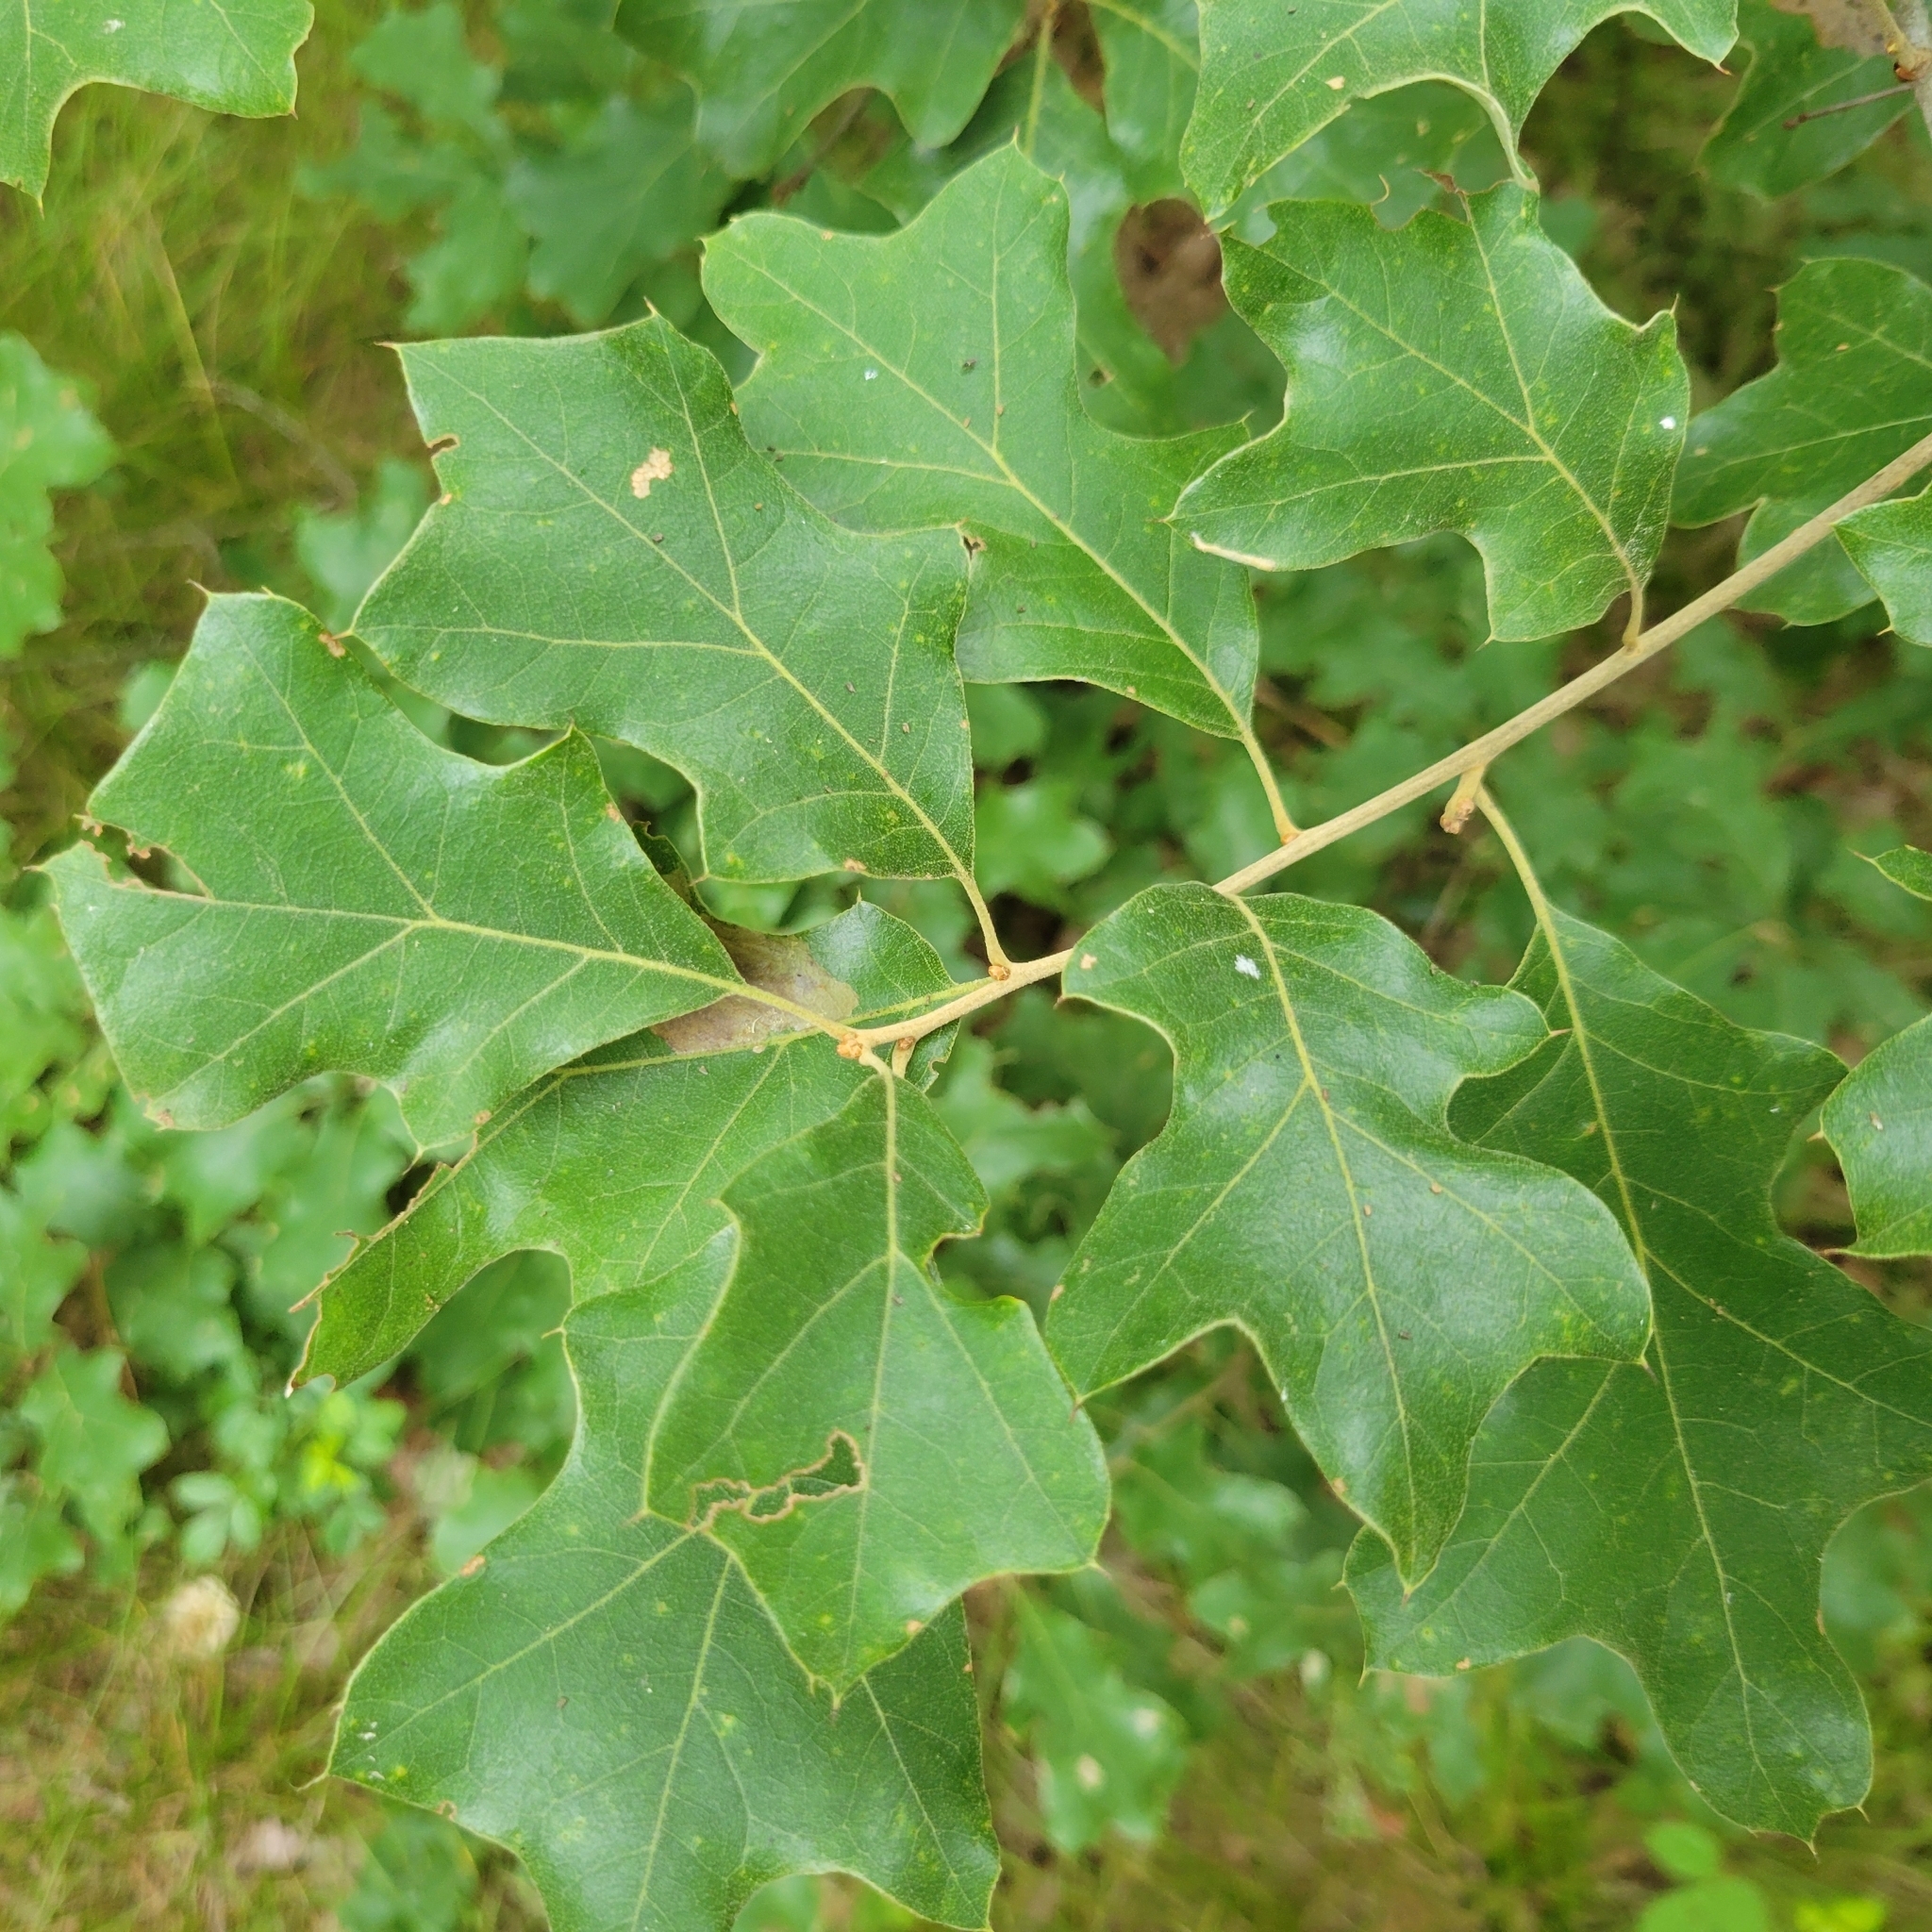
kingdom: Plantae
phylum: Tracheophyta
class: Magnoliopsida
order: Fagales
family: Fagaceae
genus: Quercus
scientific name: Quercus ilicifolia
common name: Bear oak
